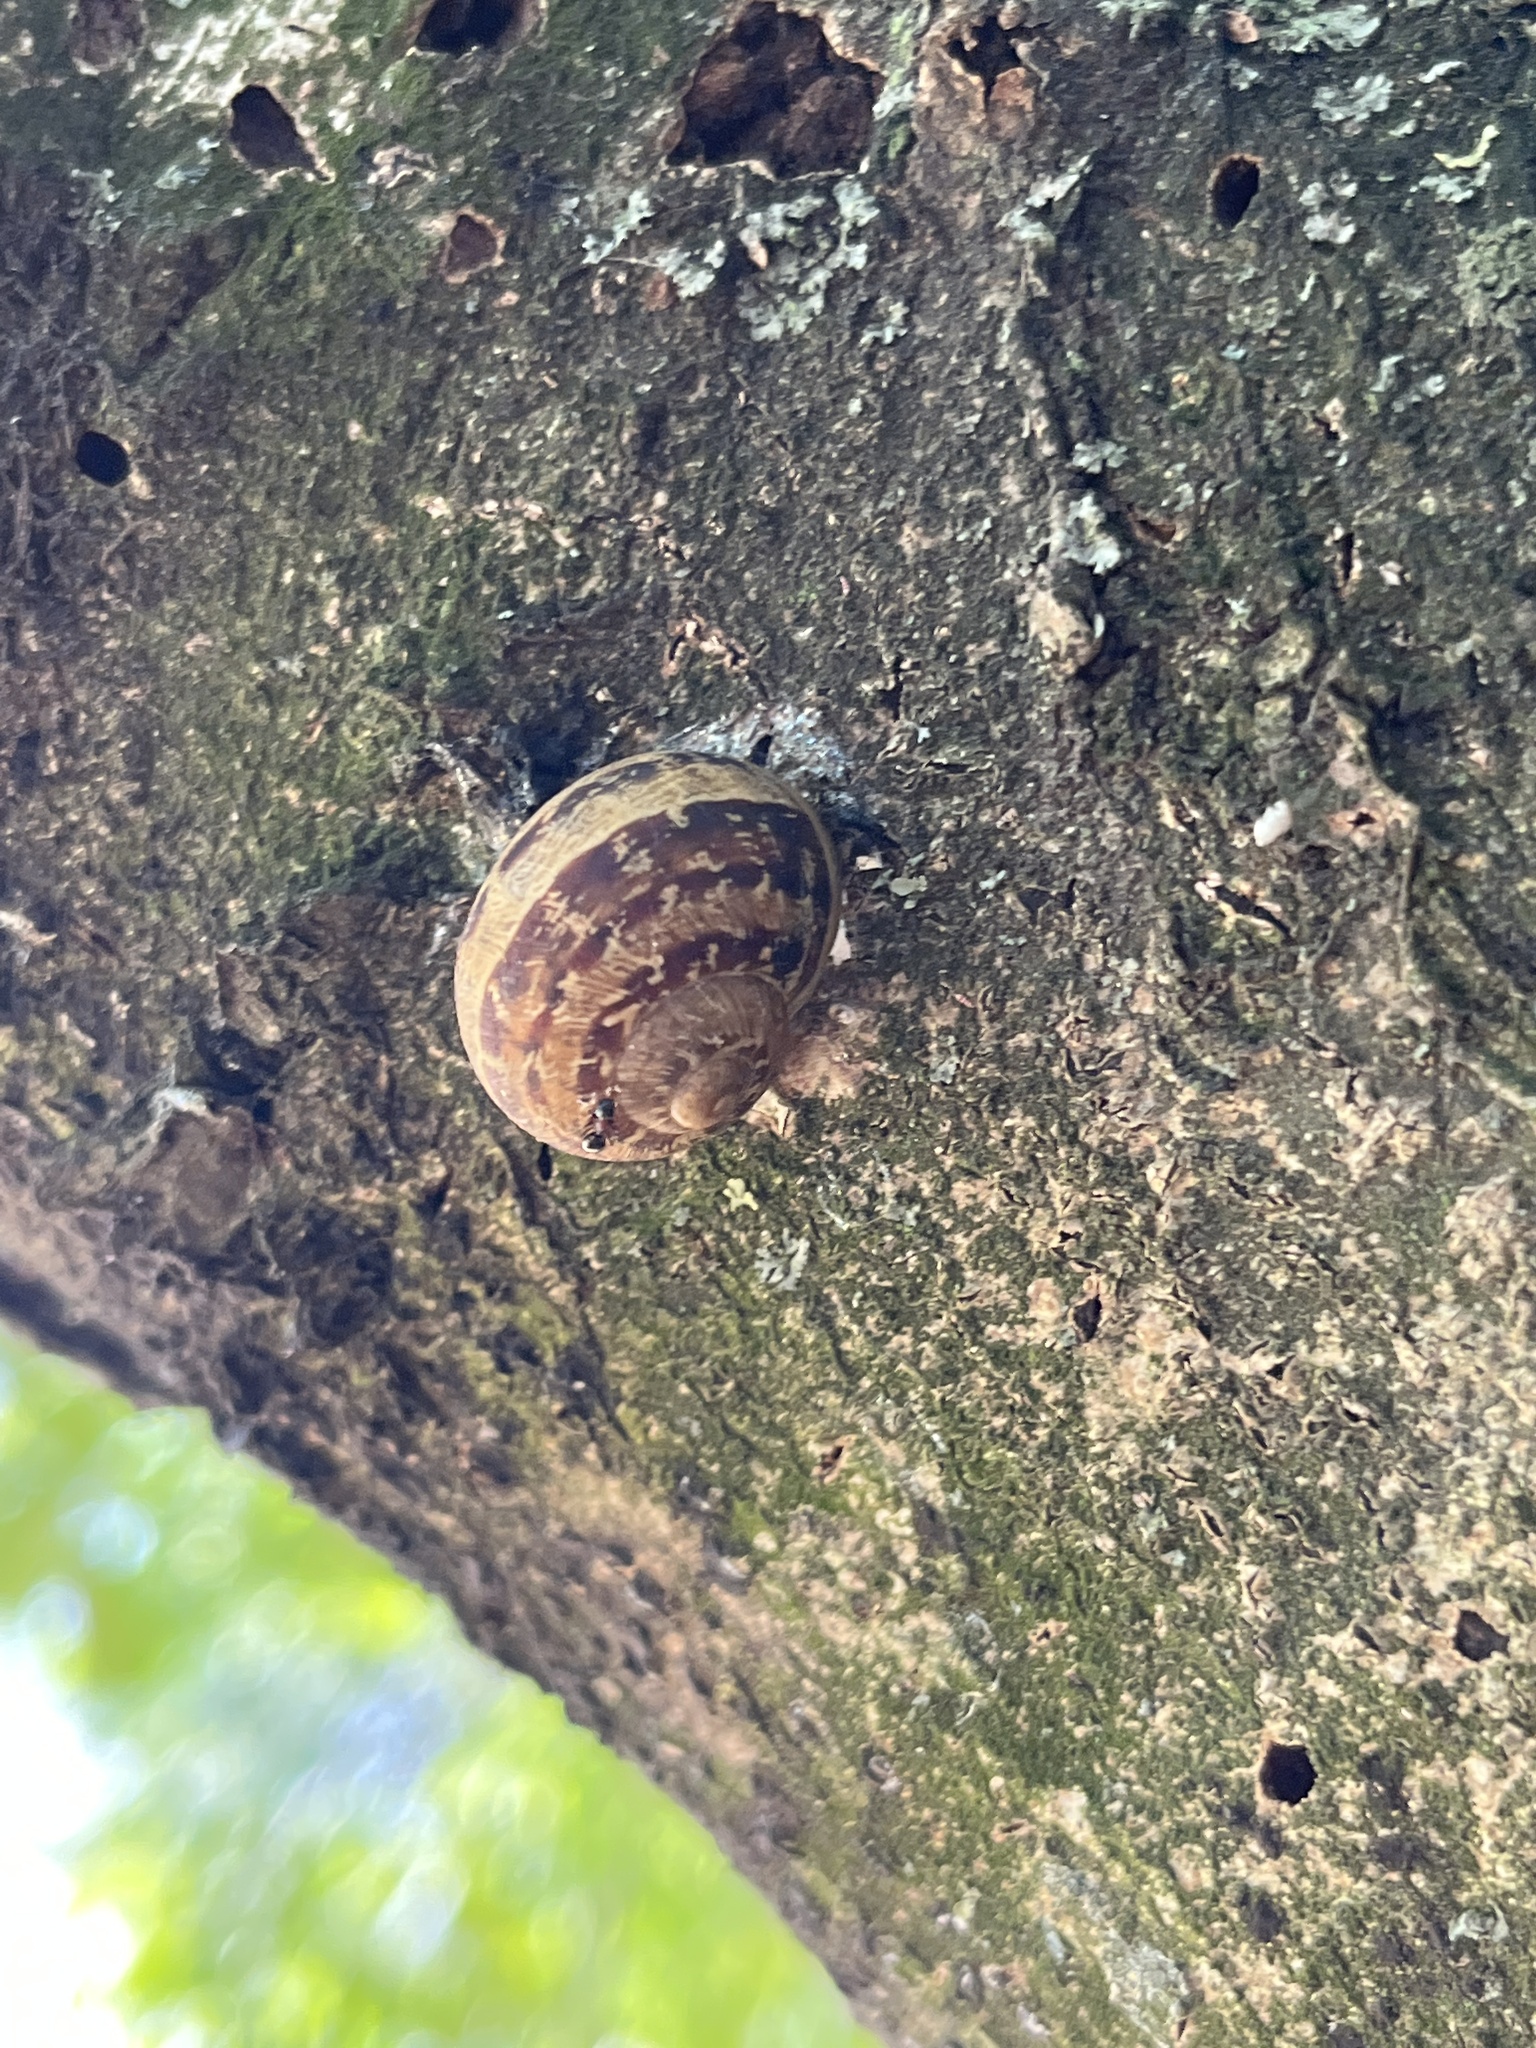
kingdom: Animalia
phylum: Mollusca
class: Gastropoda
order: Stylommatophora
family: Helicidae
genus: Cornu
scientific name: Cornu aspersum
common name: Brown garden snail
